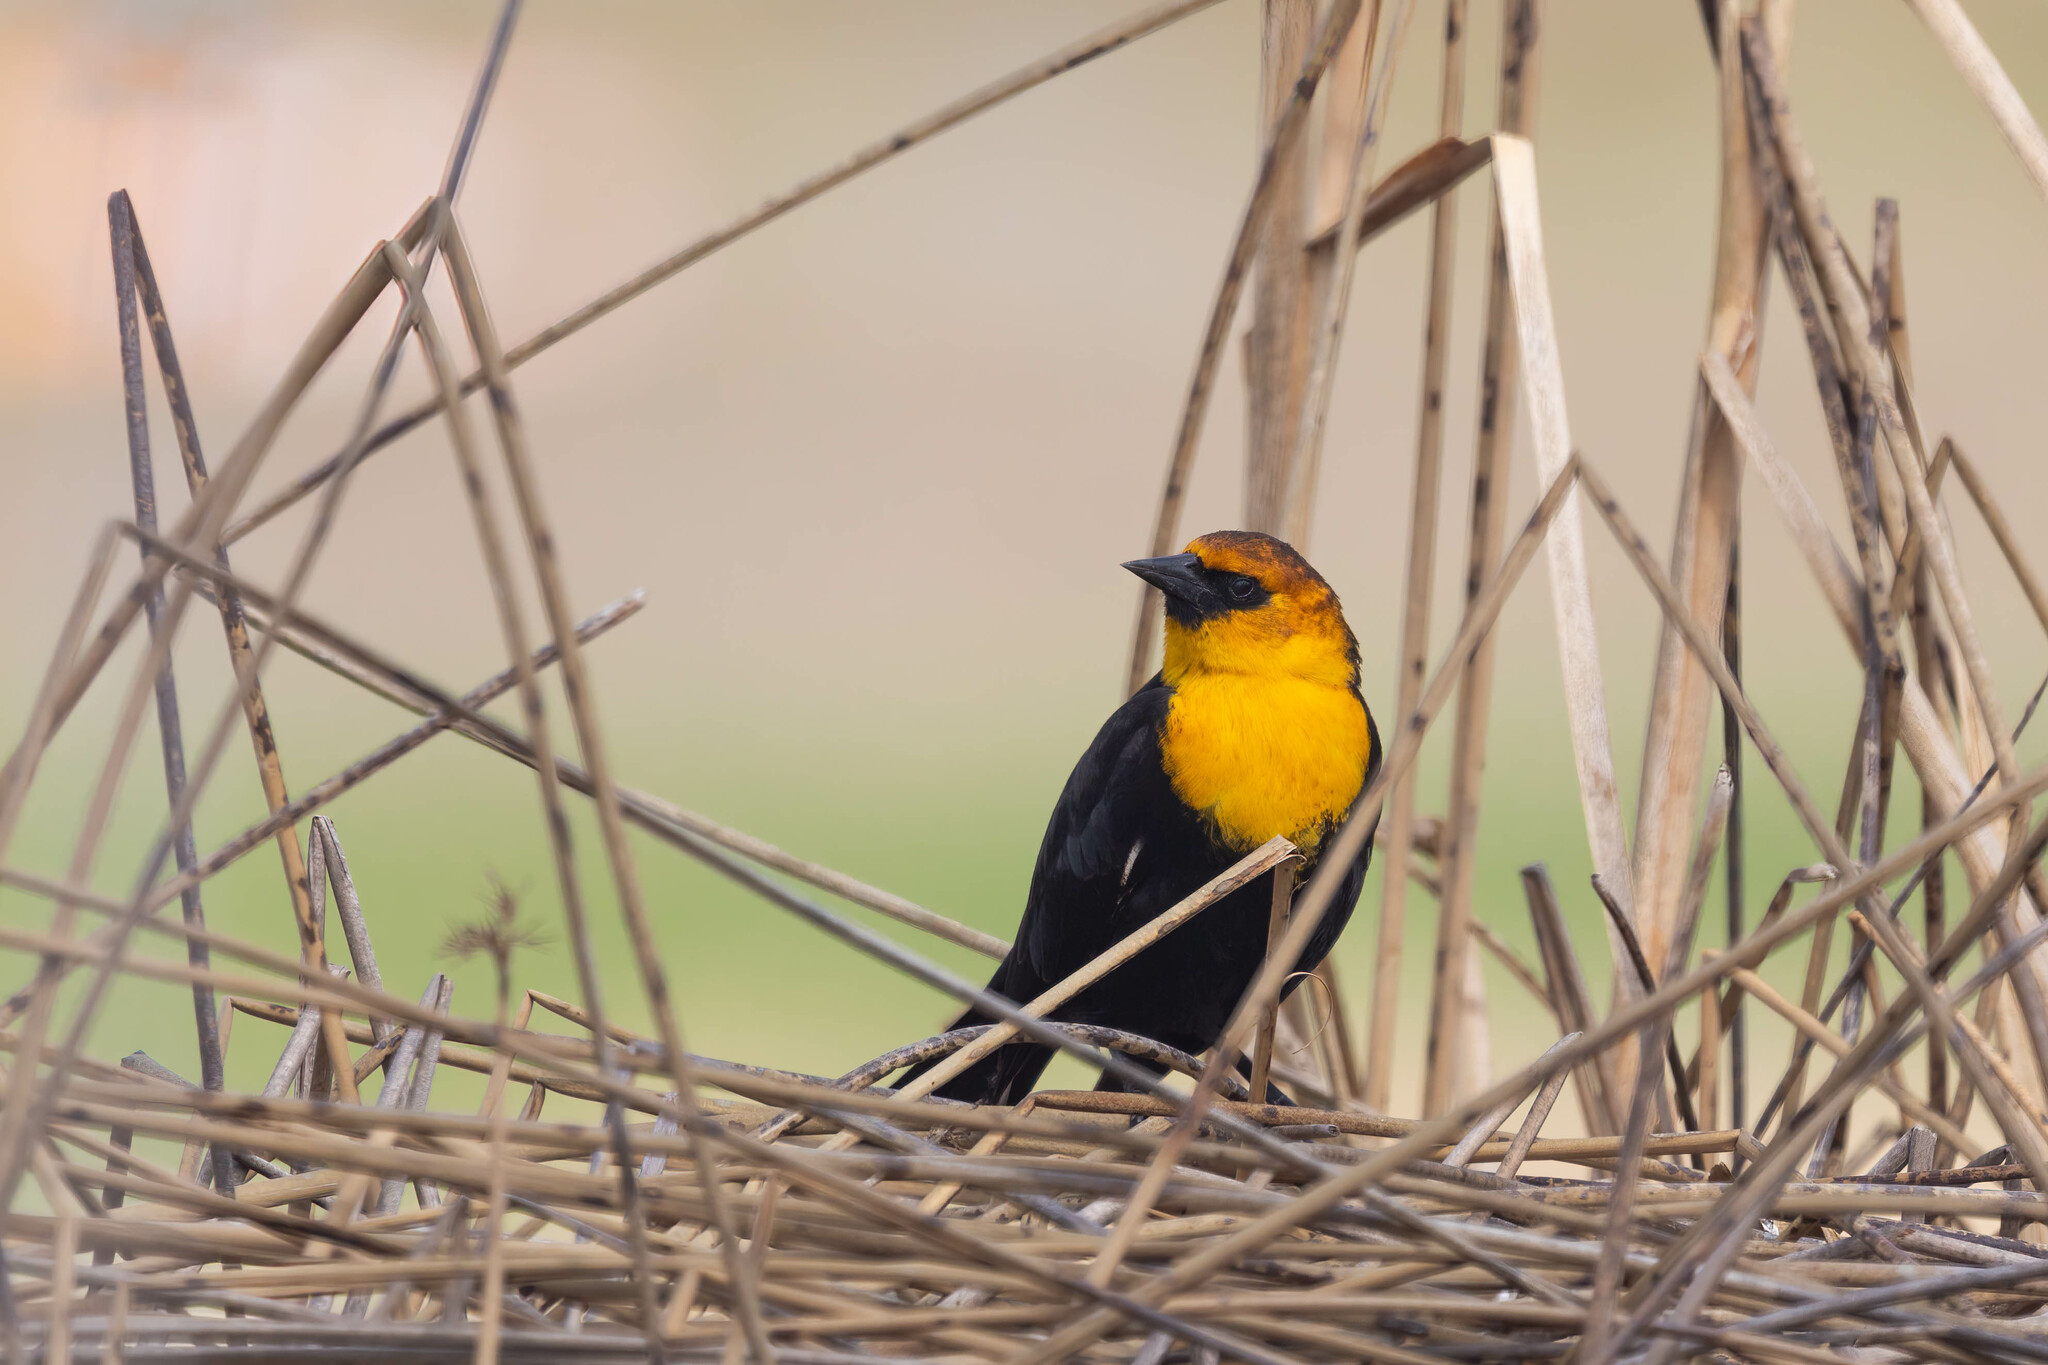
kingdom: Animalia
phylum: Chordata
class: Aves
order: Passeriformes
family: Icteridae
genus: Xanthocephalus
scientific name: Xanthocephalus xanthocephalus
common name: Yellow-headed blackbird
